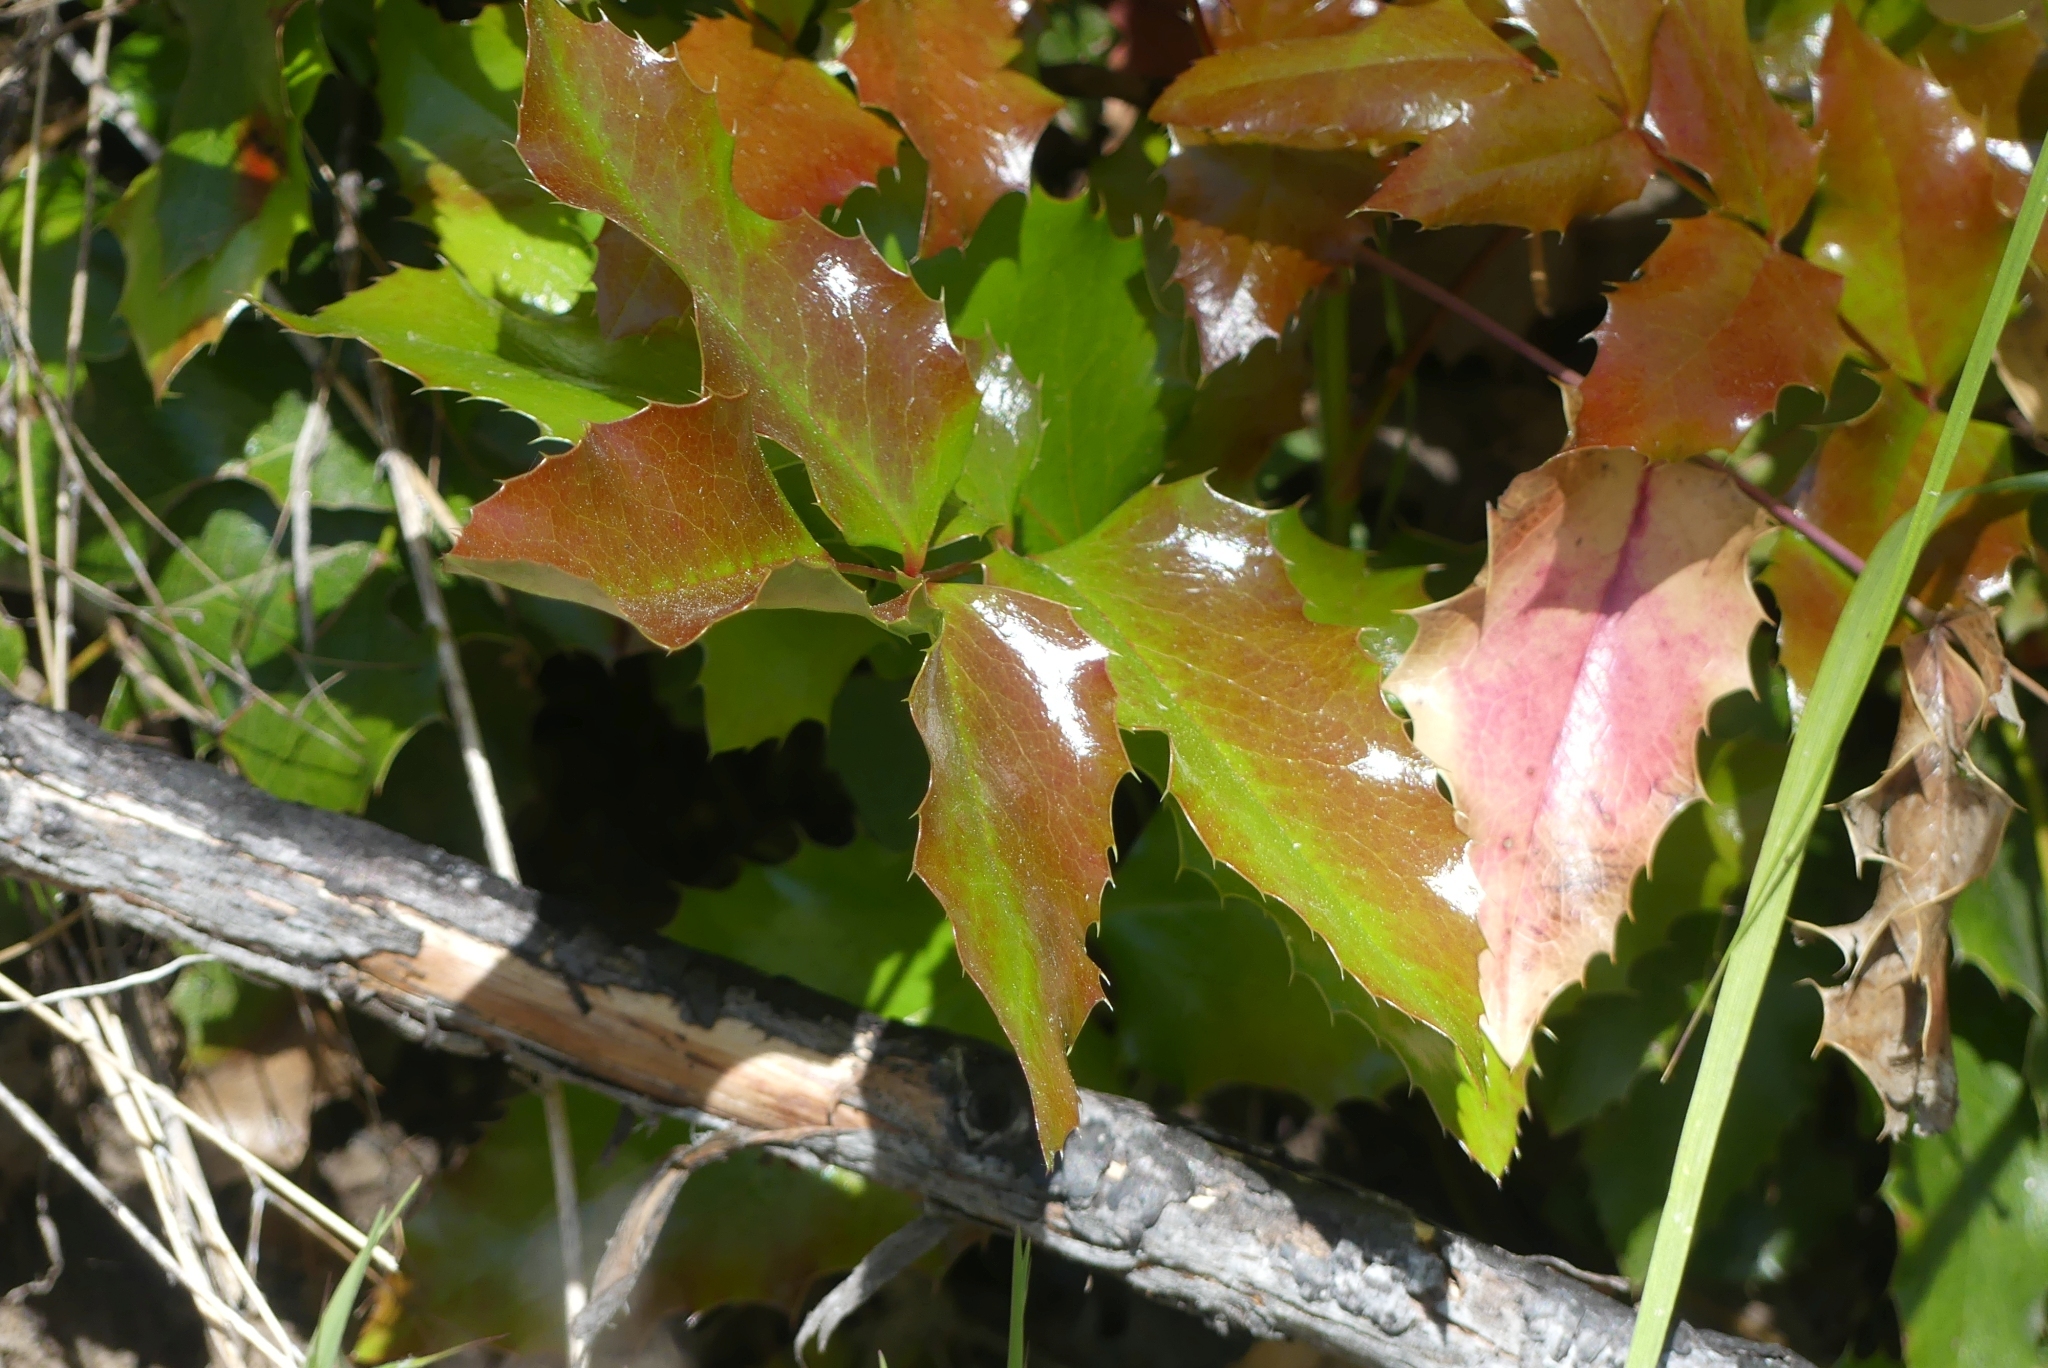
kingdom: Plantae
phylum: Tracheophyta
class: Magnoliopsida
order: Ranunculales
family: Berberidaceae
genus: Mahonia
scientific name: Mahonia aquifolium
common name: Oregon-grape
